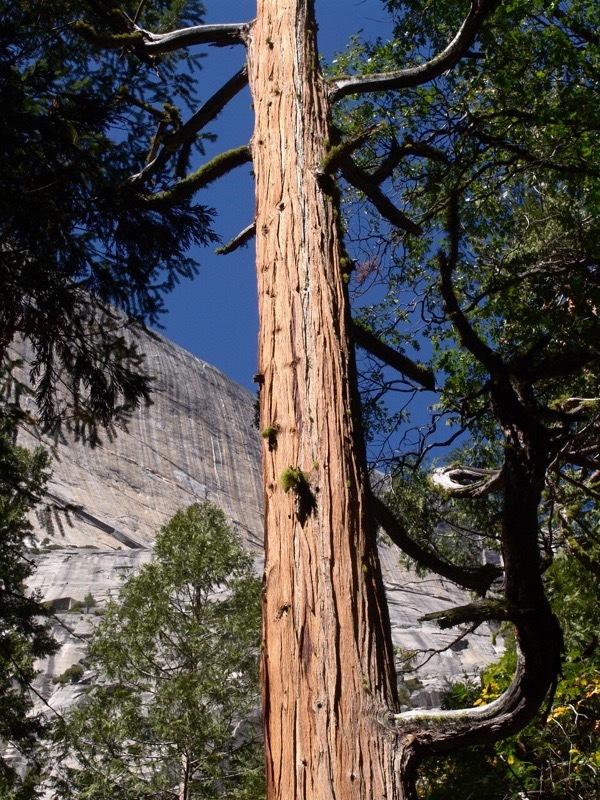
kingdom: Plantae
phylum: Tracheophyta
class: Pinopsida
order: Pinales
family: Cupressaceae
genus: Calocedrus
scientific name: Calocedrus decurrens
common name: Californian incense-cedar
